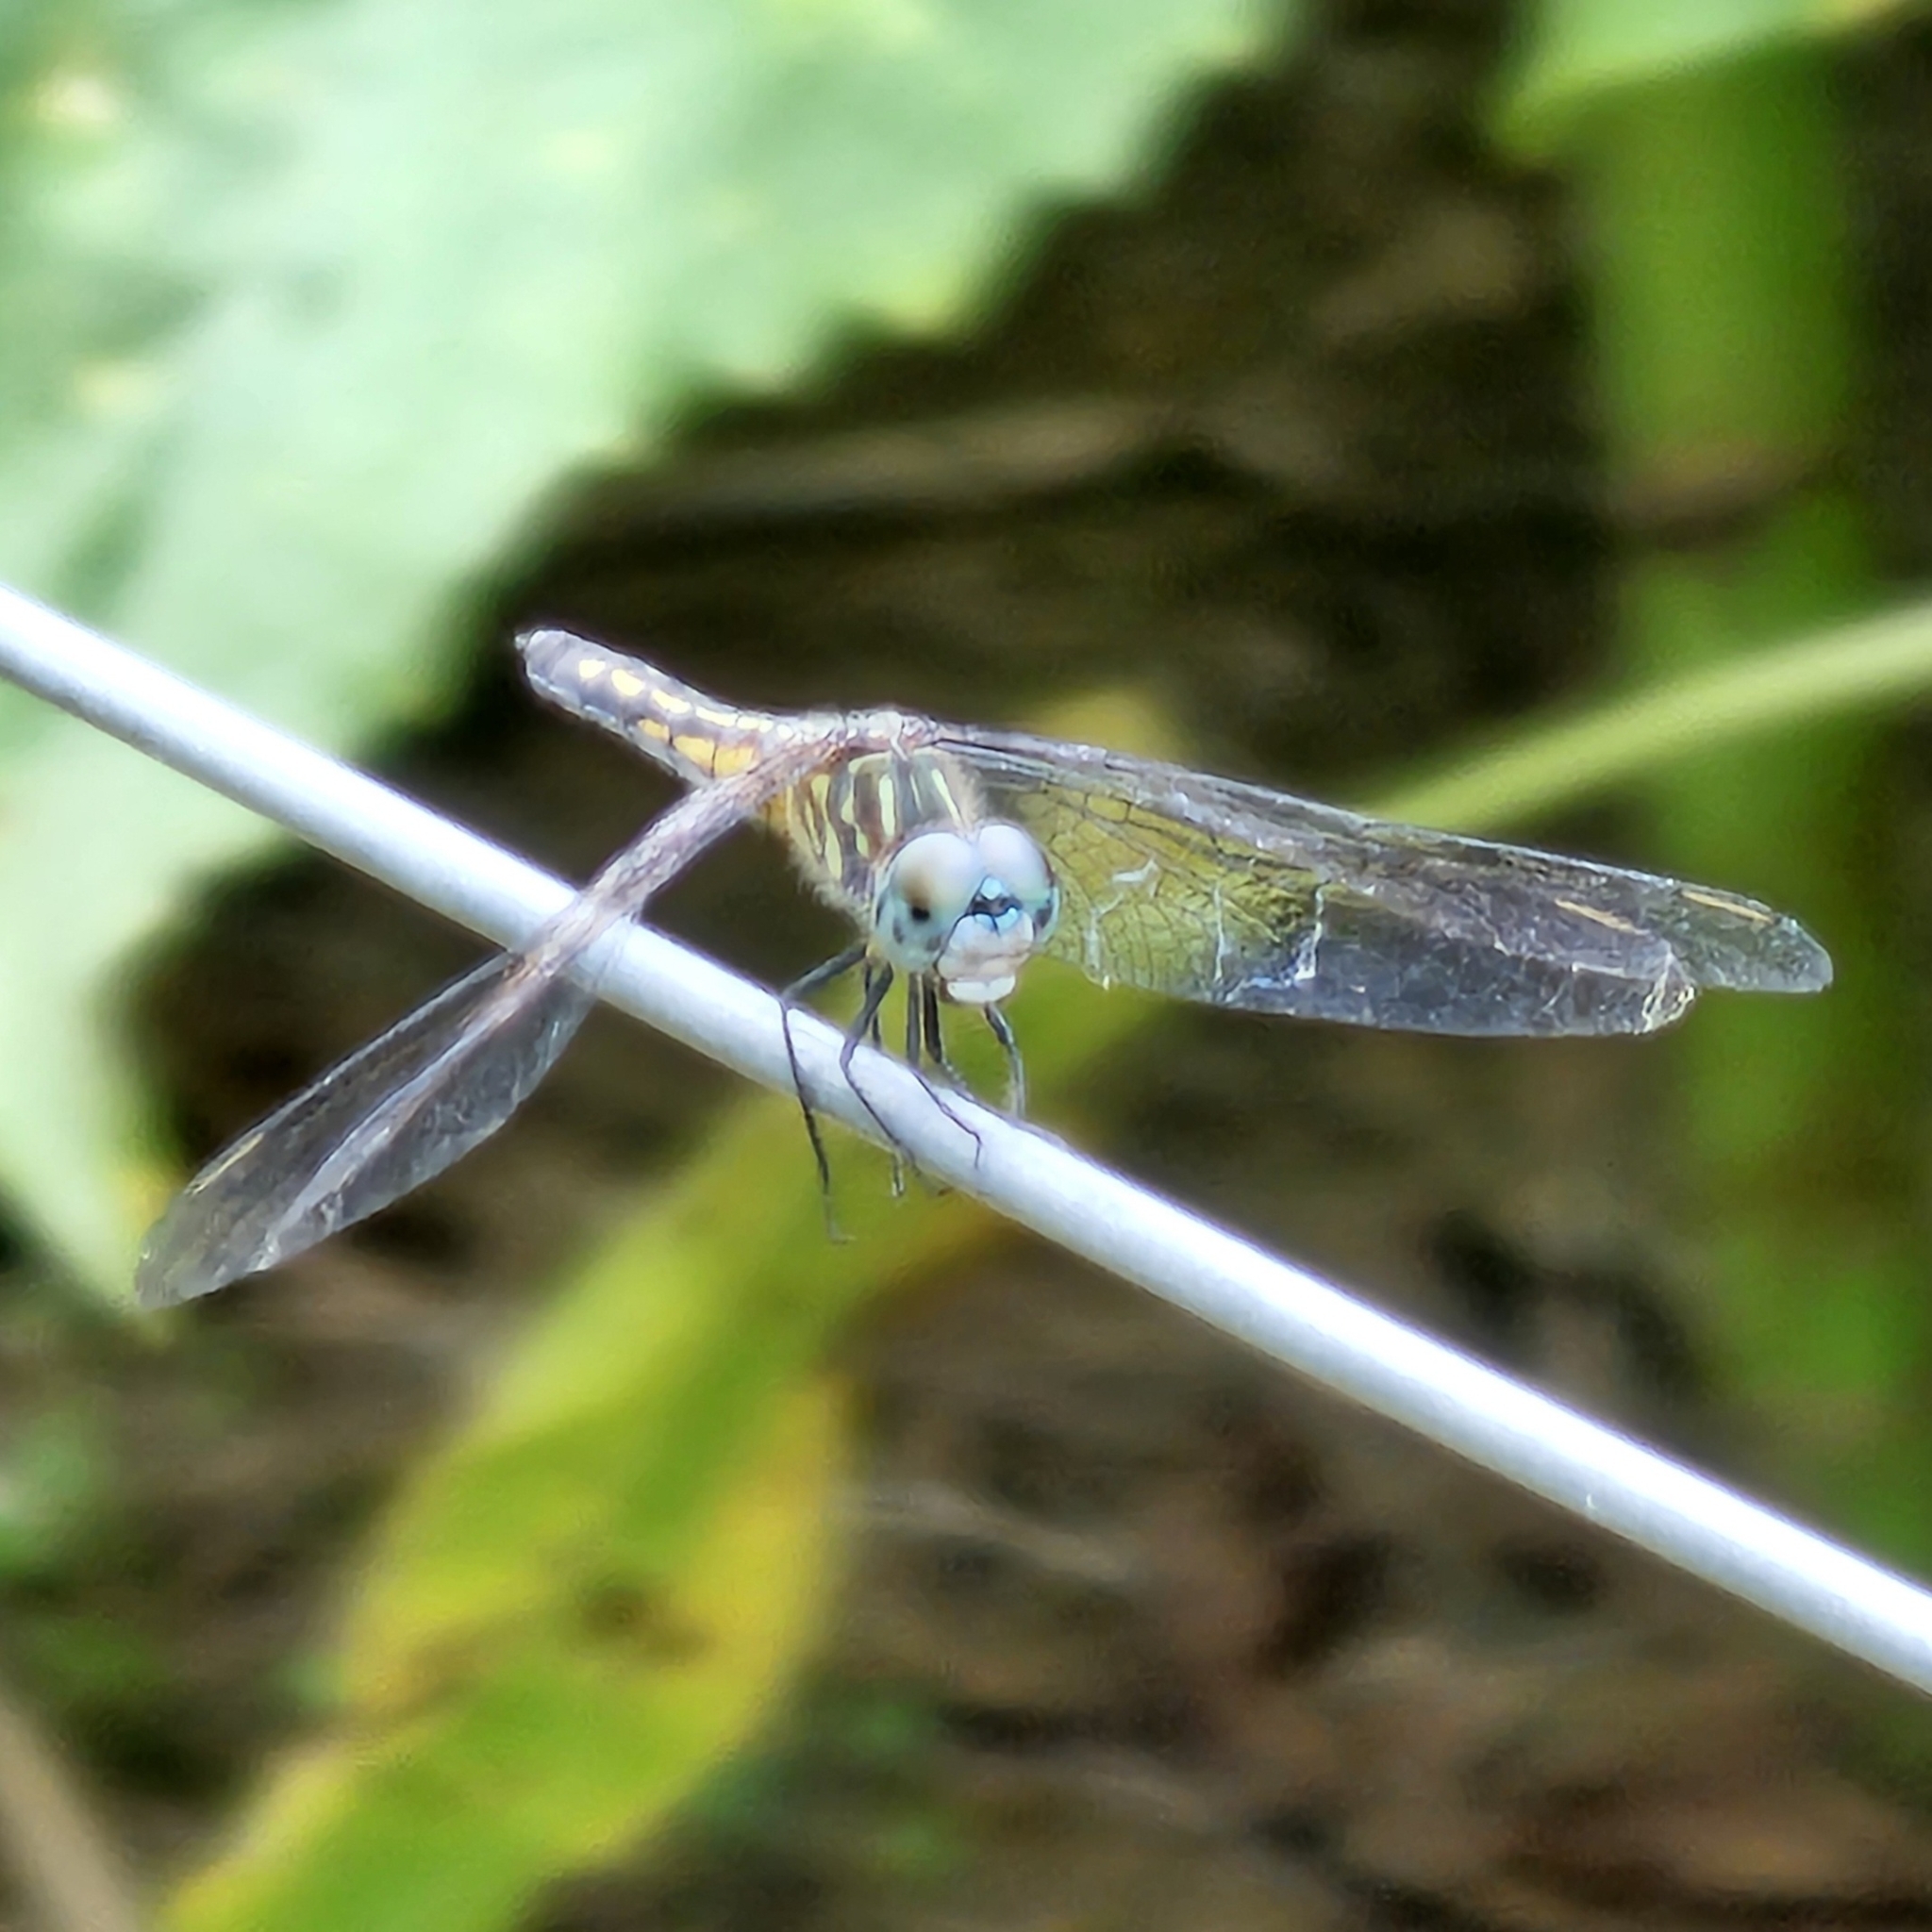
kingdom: Animalia
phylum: Arthropoda
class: Insecta
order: Odonata
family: Libellulidae
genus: Pachydiplax
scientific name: Pachydiplax longipennis
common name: Blue dasher
